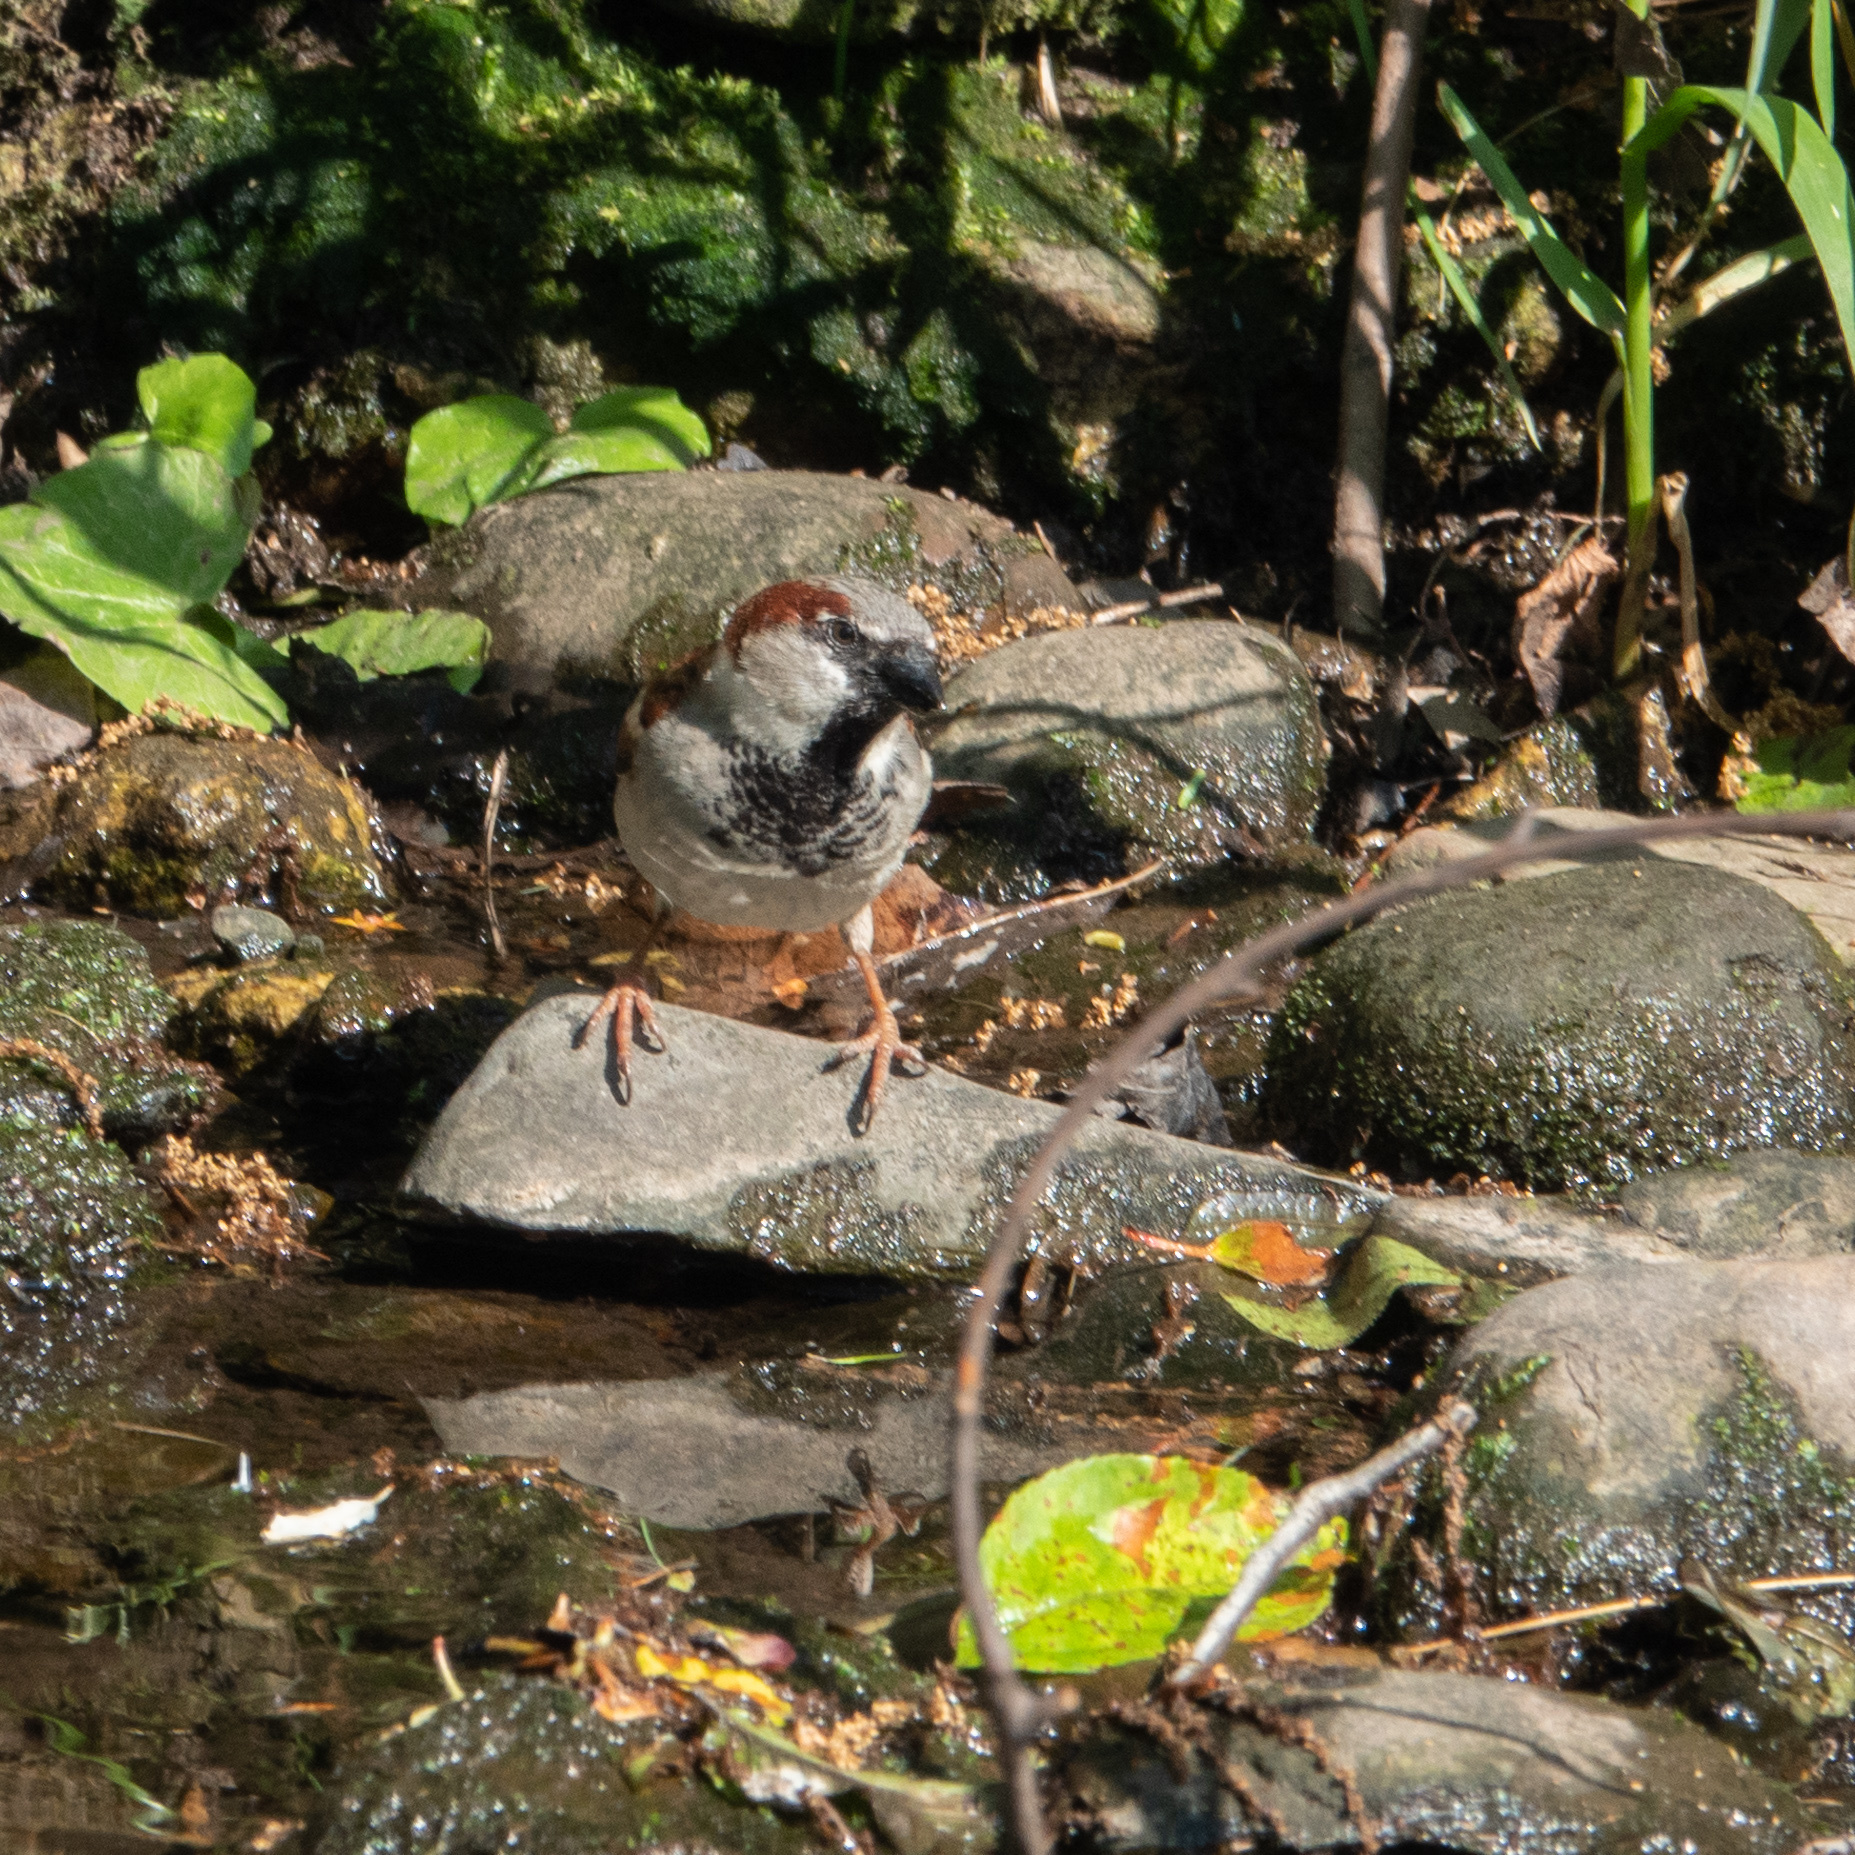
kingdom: Animalia
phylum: Chordata
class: Aves
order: Passeriformes
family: Passeridae
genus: Passer
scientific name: Passer domesticus
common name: House sparrow
